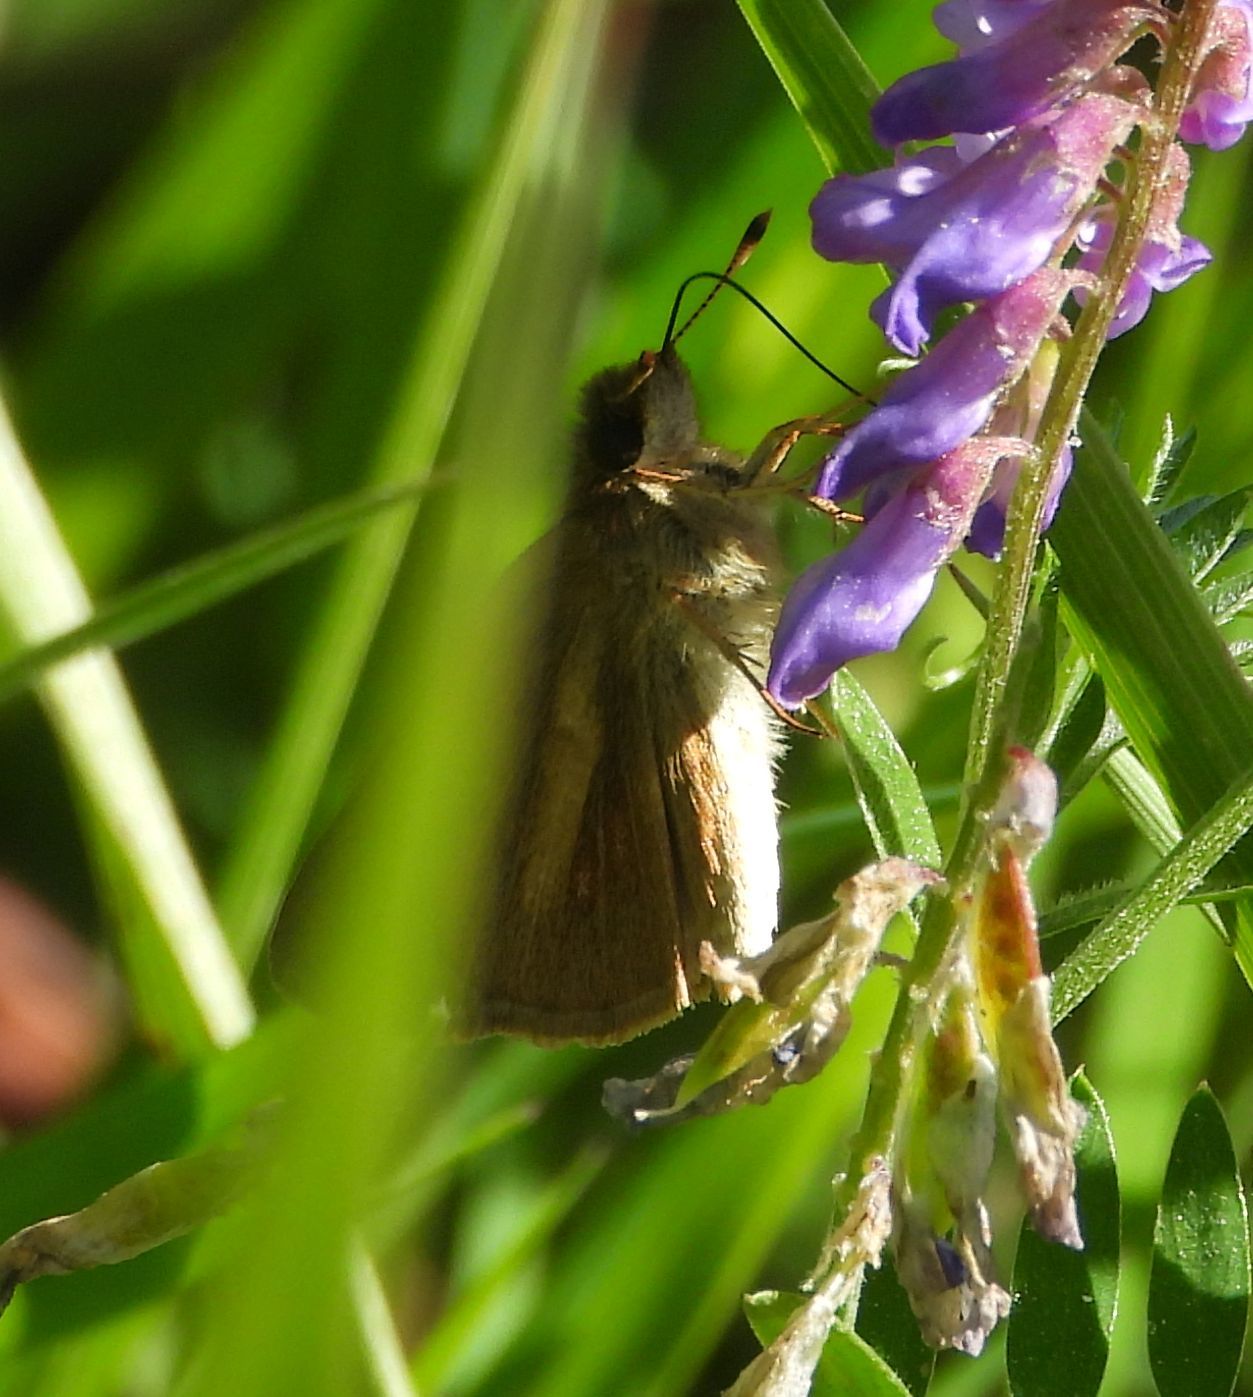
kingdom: Animalia
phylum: Arthropoda
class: Insecta
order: Lepidoptera
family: Hesperiidae
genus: Poanes
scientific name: Poanes viator
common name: Broad-winged skipper
